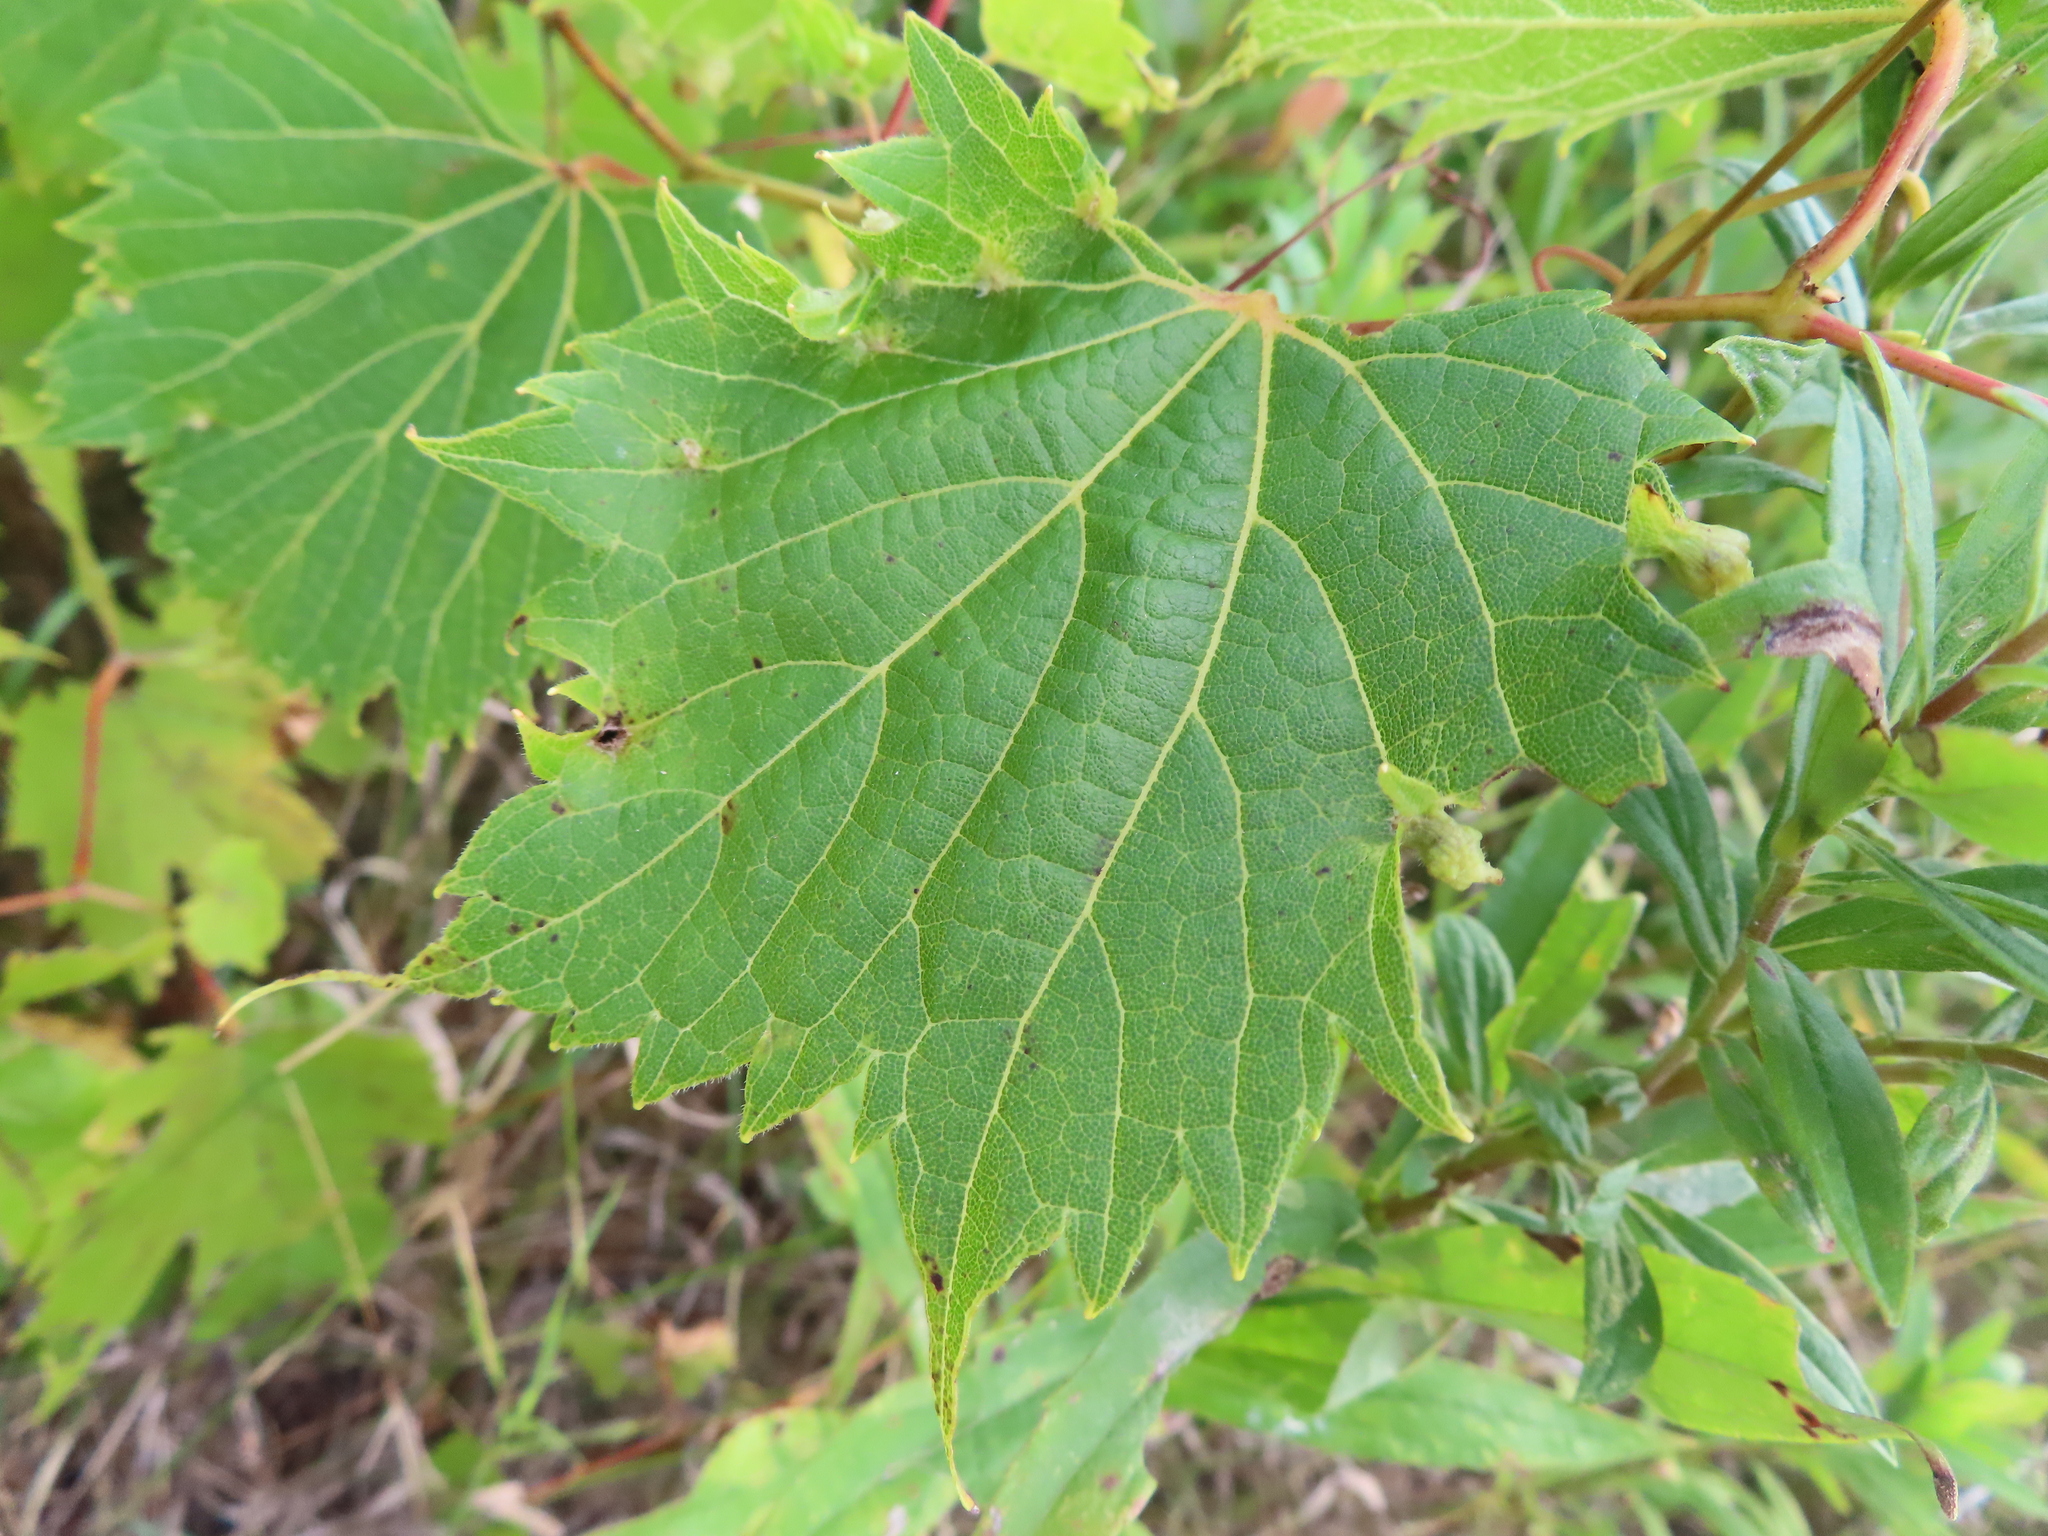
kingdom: Plantae
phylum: Tracheophyta
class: Magnoliopsida
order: Vitales
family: Vitaceae
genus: Vitis
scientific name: Vitis riparia
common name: Frost grape
